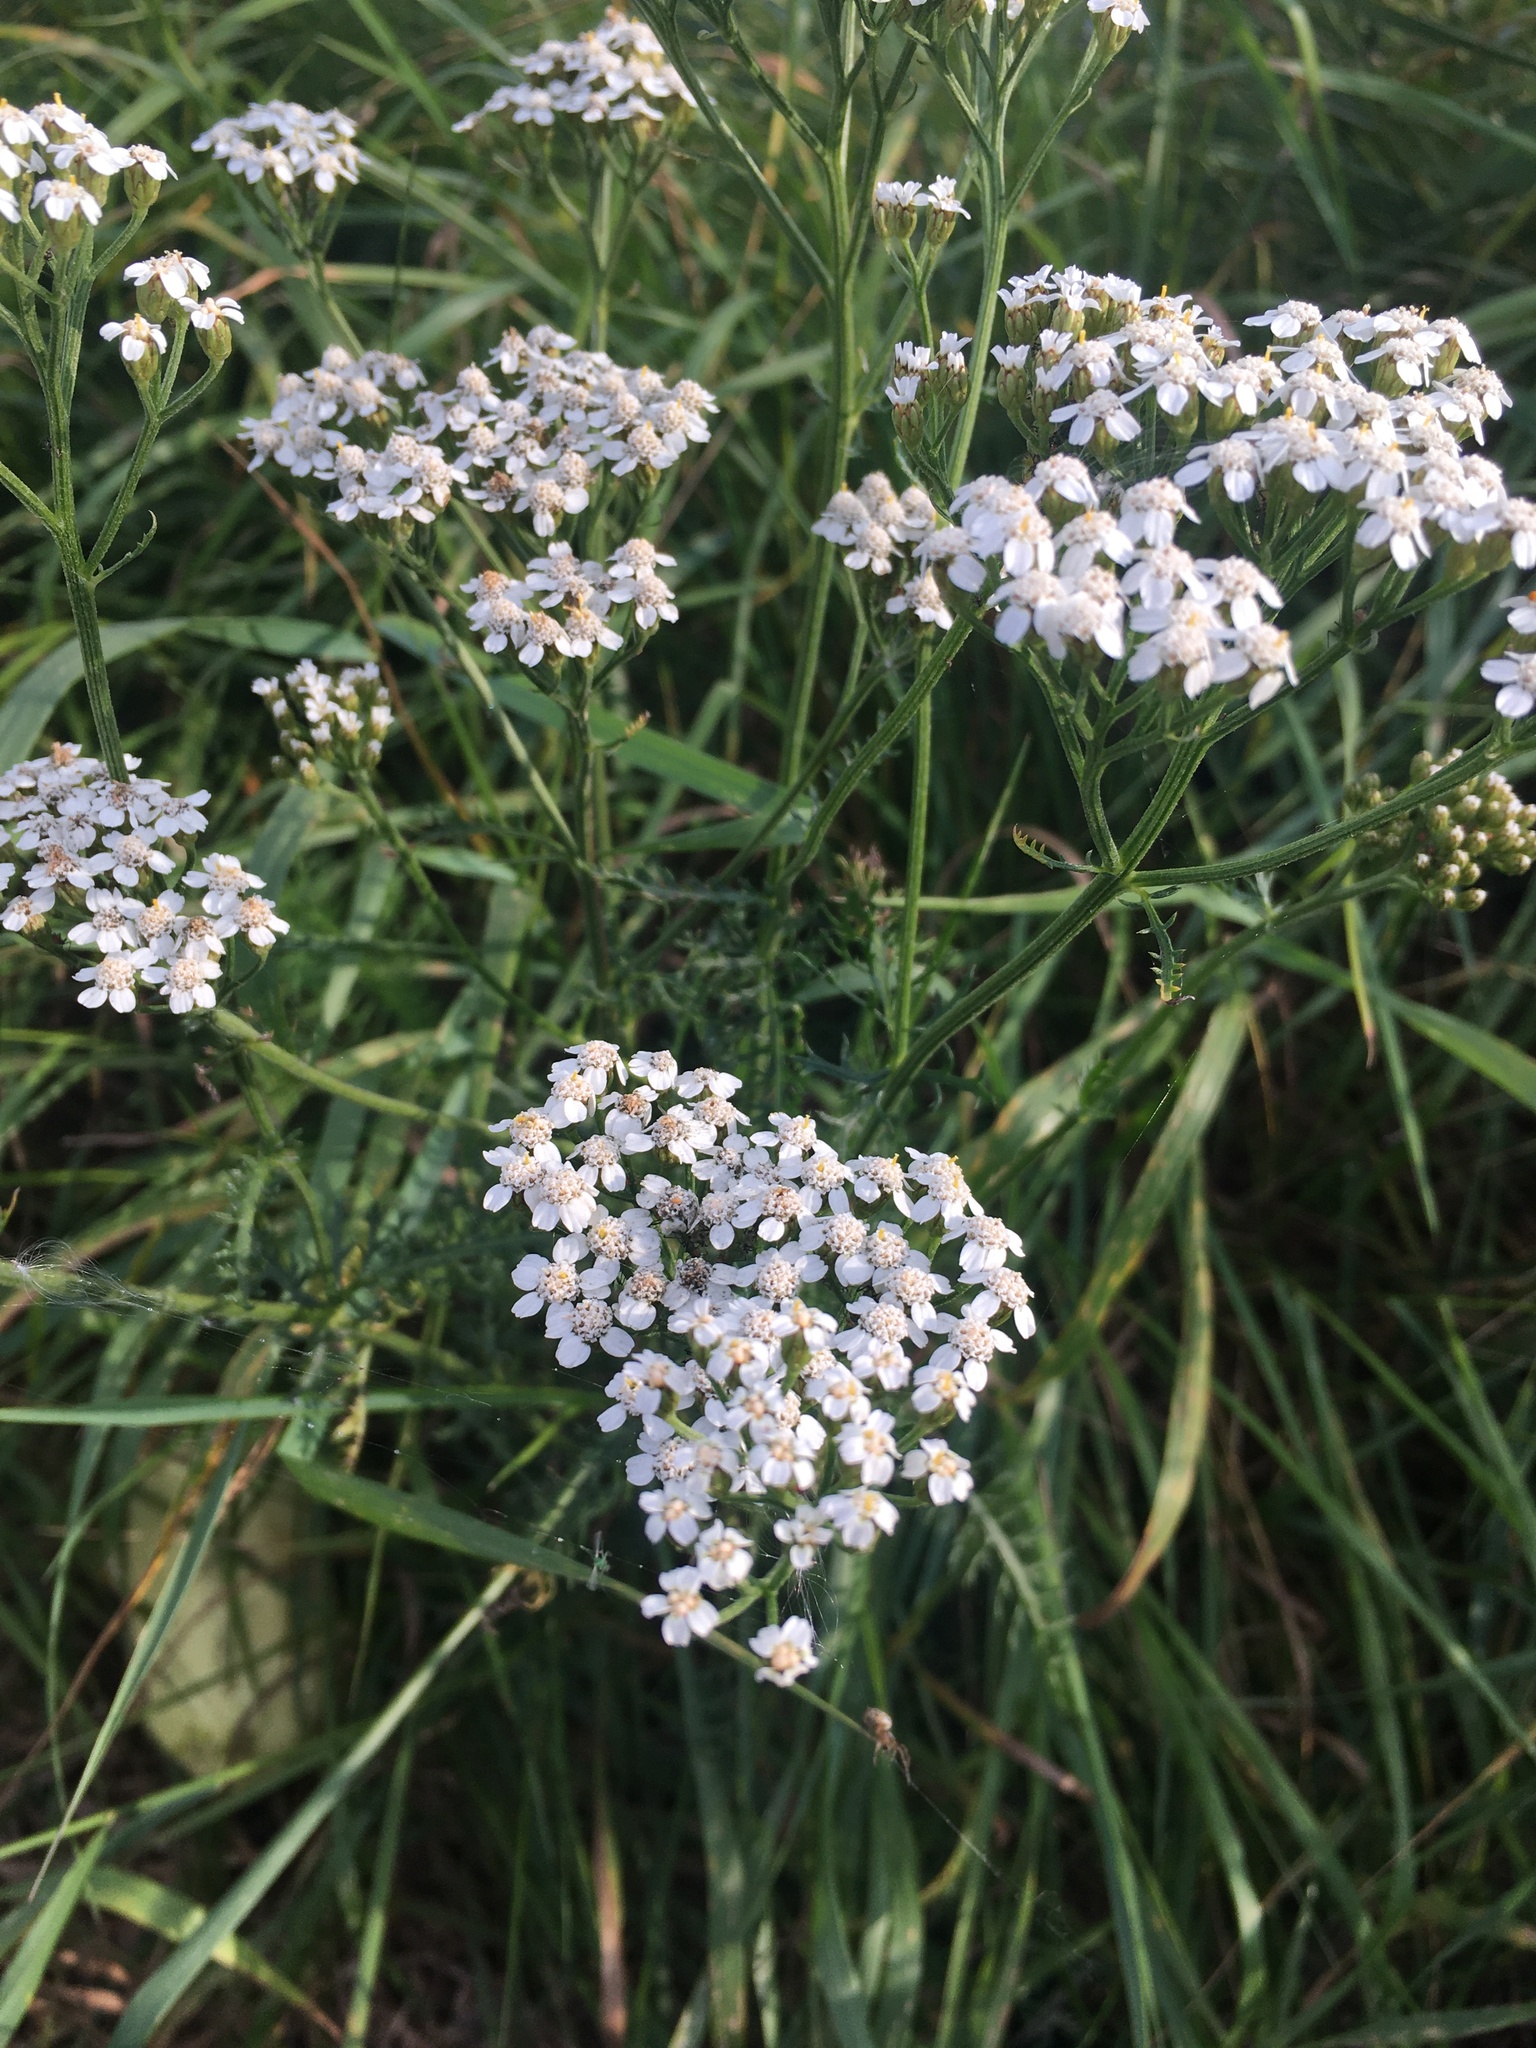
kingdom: Plantae
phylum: Tracheophyta
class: Magnoliopsida
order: Asterales
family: Asteraceae
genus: Achillea
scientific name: Achillea millefolium
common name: Yarrow
